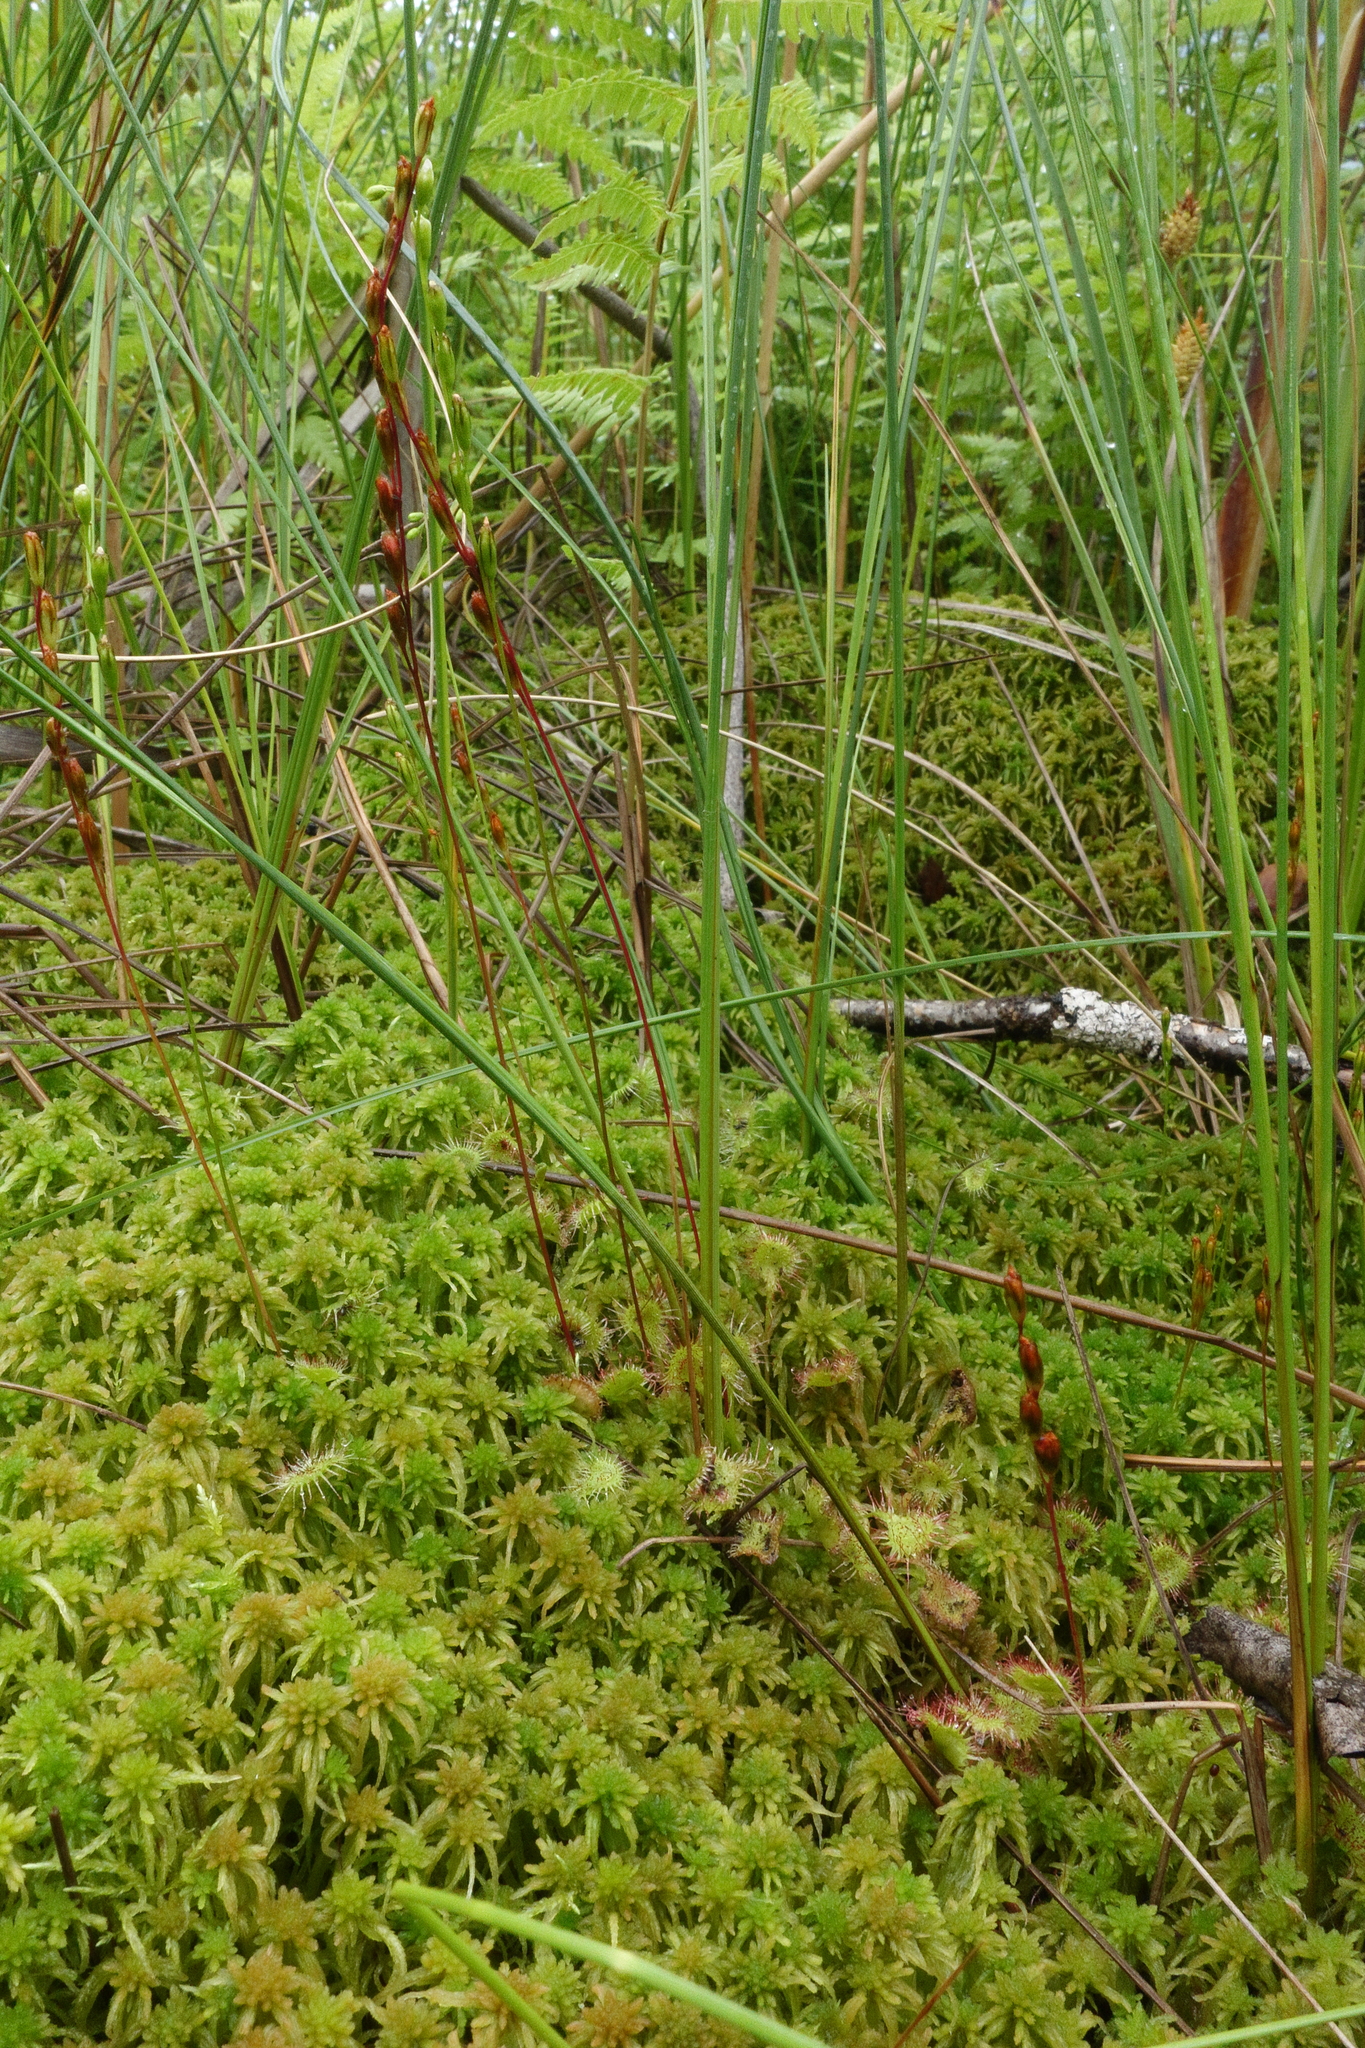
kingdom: Plantae
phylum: Tracheophyta
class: Magnoliopsida
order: Caryophyllales
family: Droseraceae
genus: Drosera
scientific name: Drosera rotundifolia
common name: Round-leaved sundew
